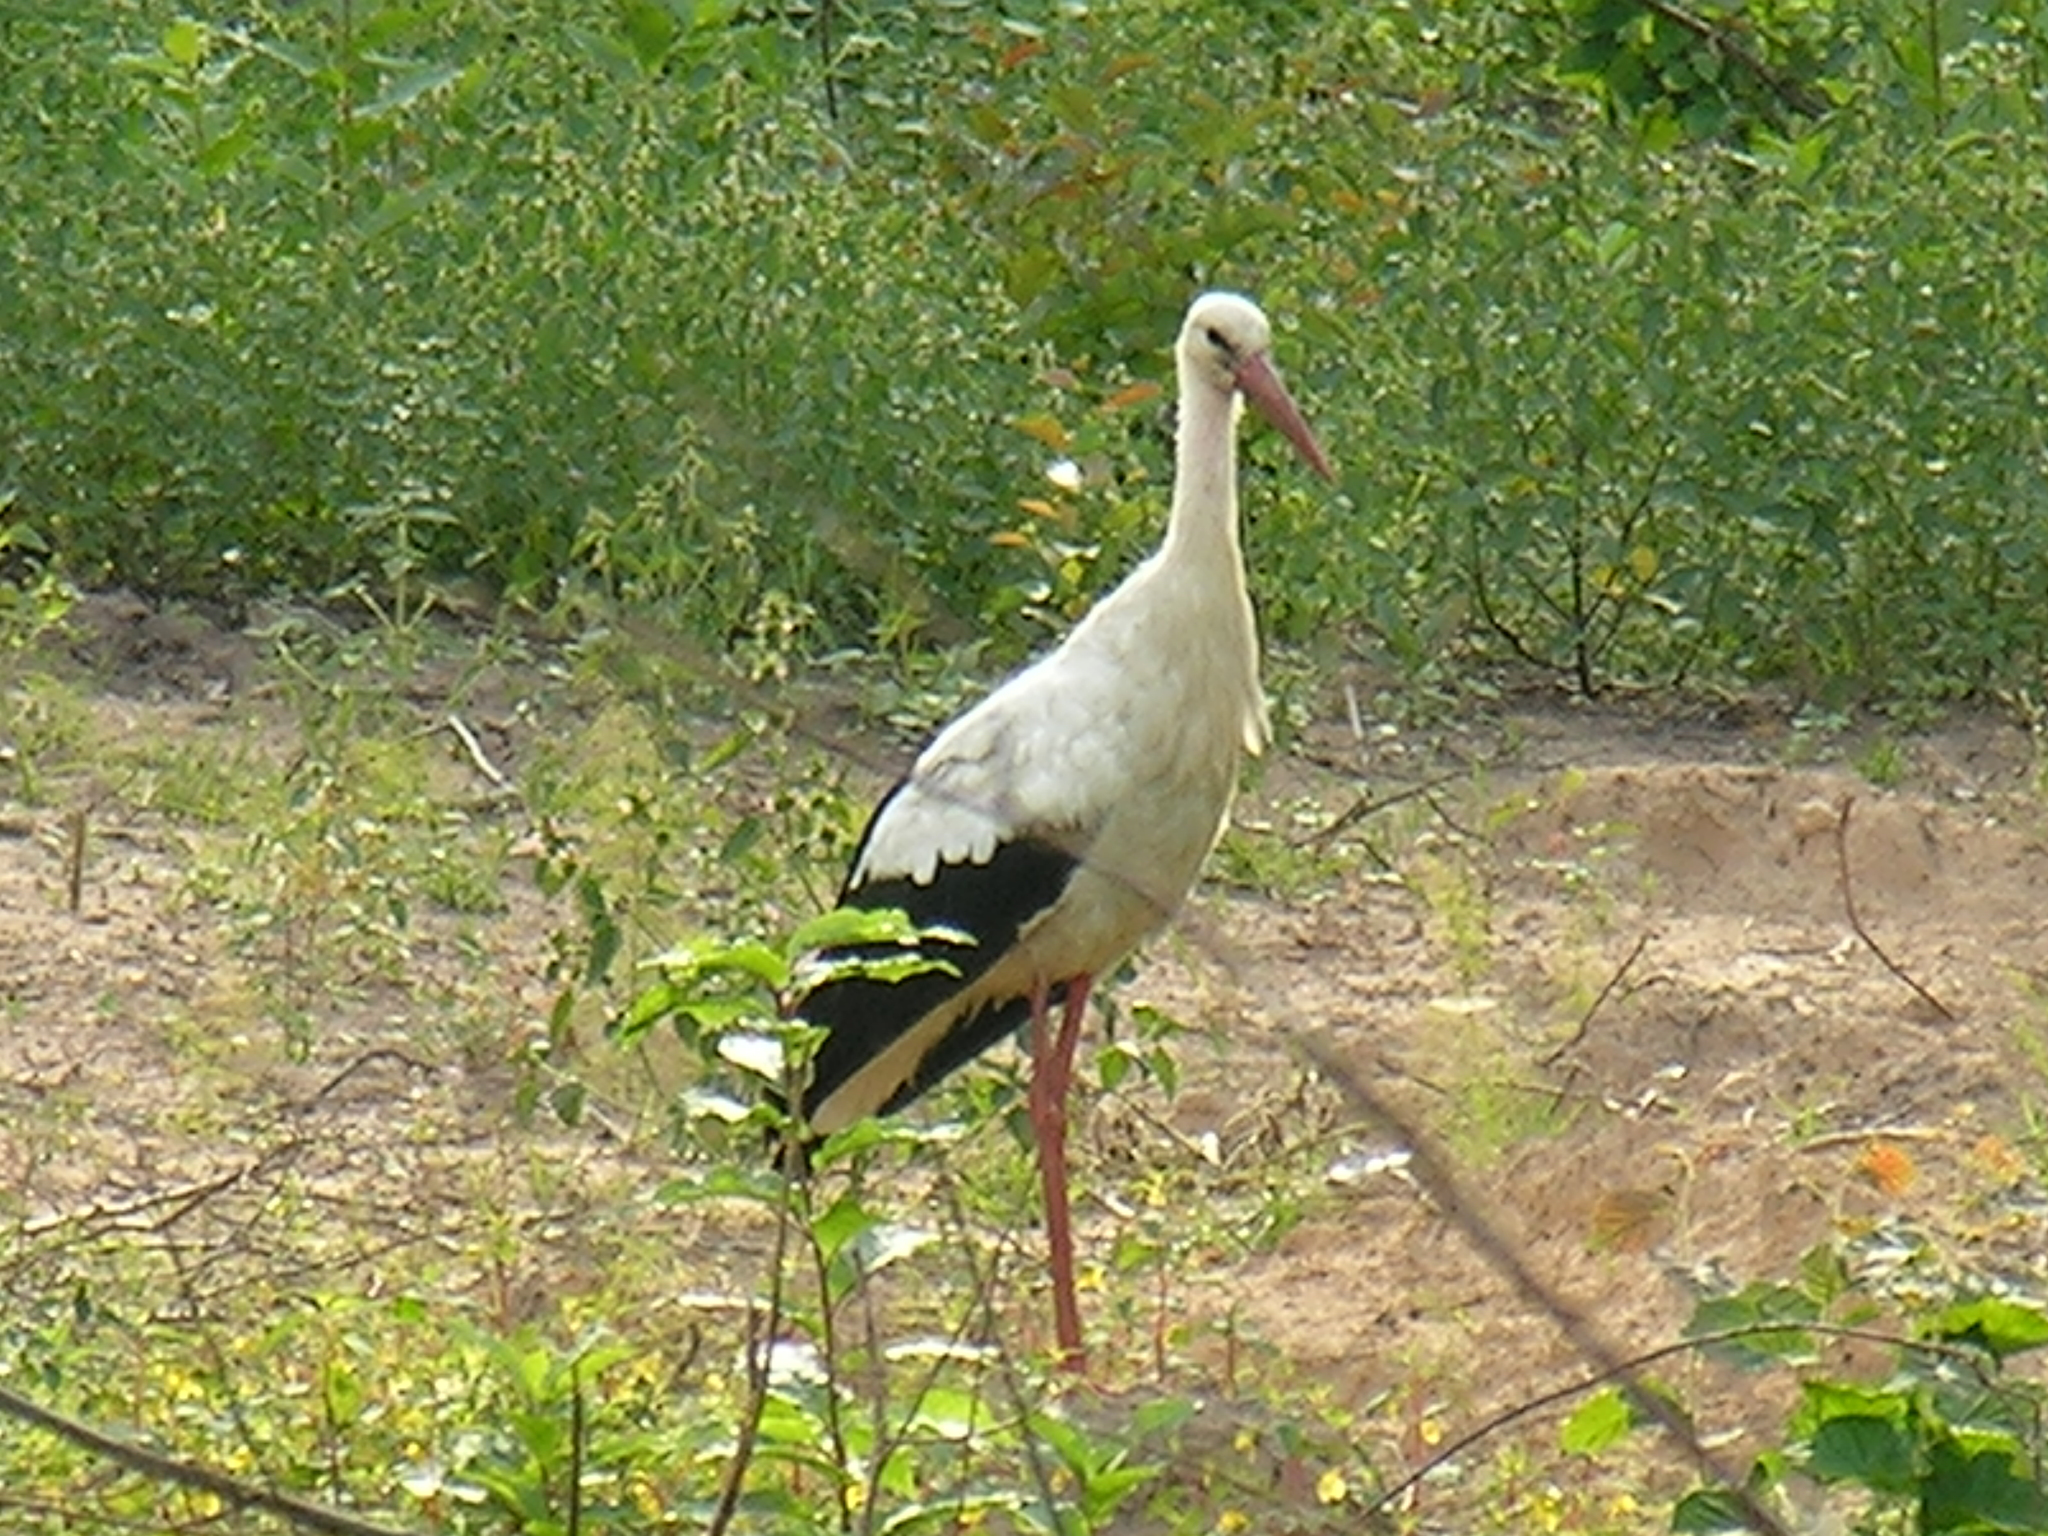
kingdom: Animalia
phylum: Chordata
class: Aves
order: Ciconiiformes
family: Ciconiidae
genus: Ciconia
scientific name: Ciconia ciconia
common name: White stork
